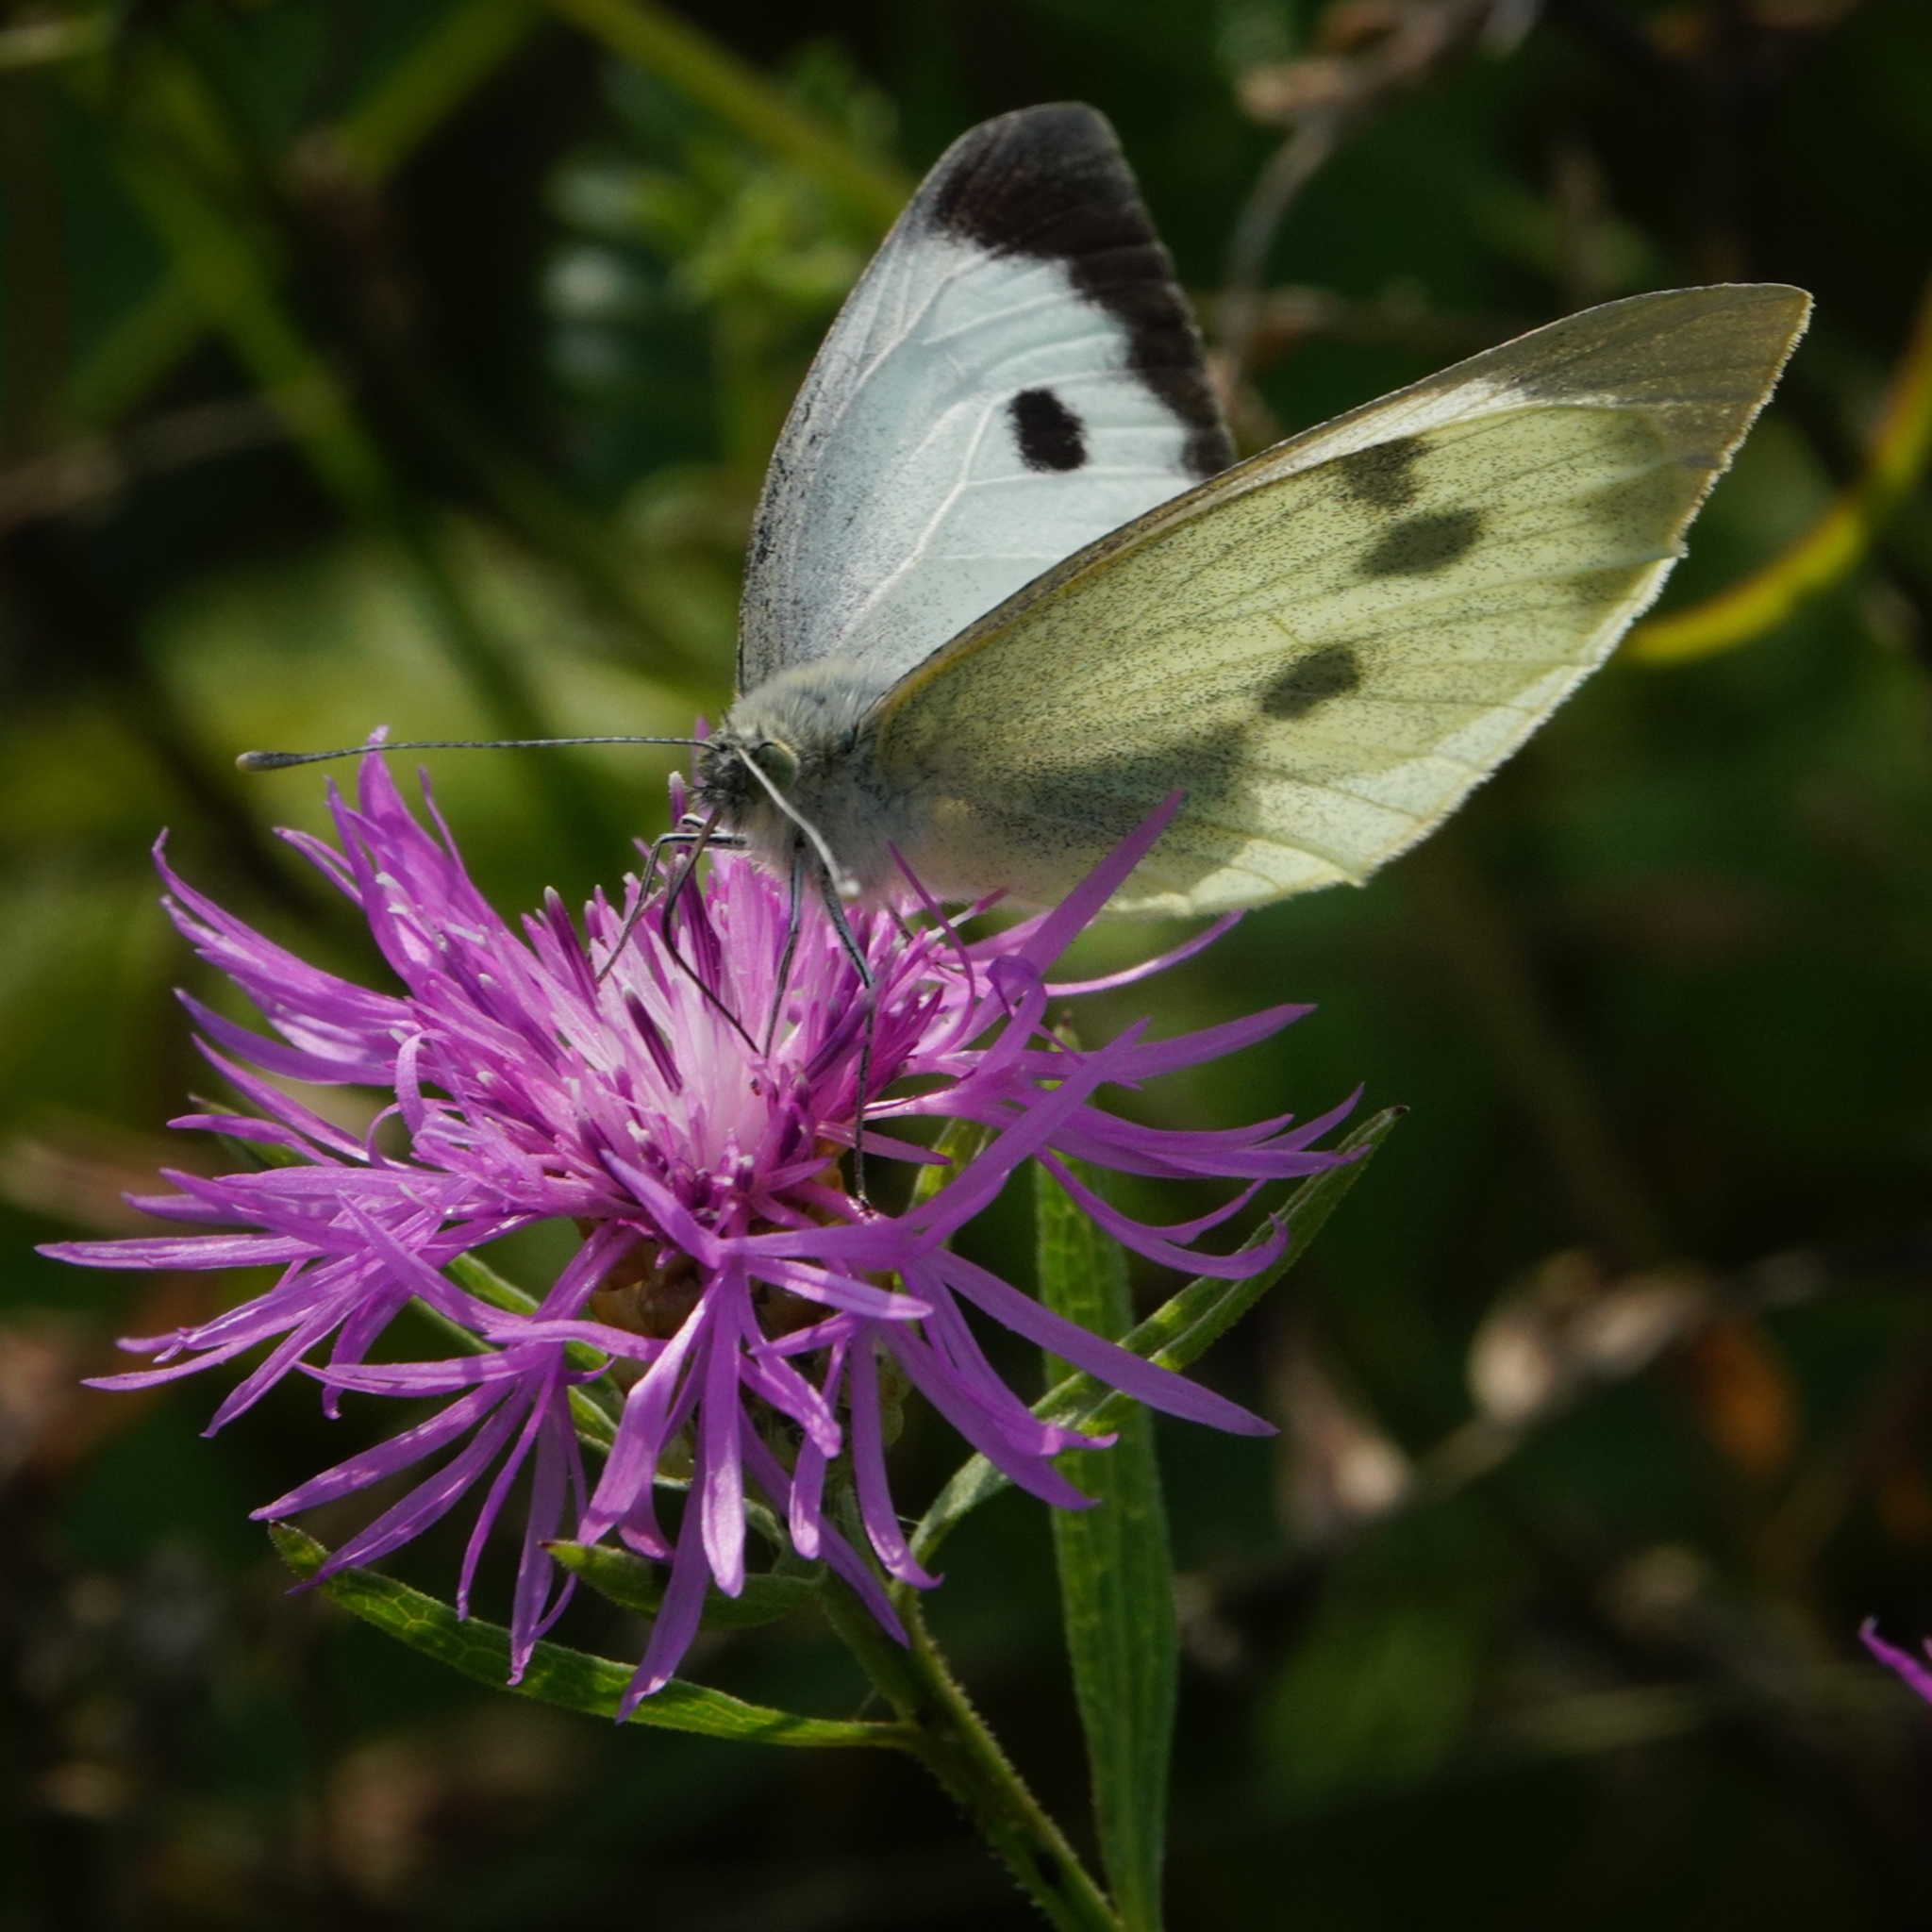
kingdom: Animalia
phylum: Arthropoda
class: Insecta
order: Lepidoptera
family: Pieridae
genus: Pieris
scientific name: Pieris brassicae
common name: Large white
